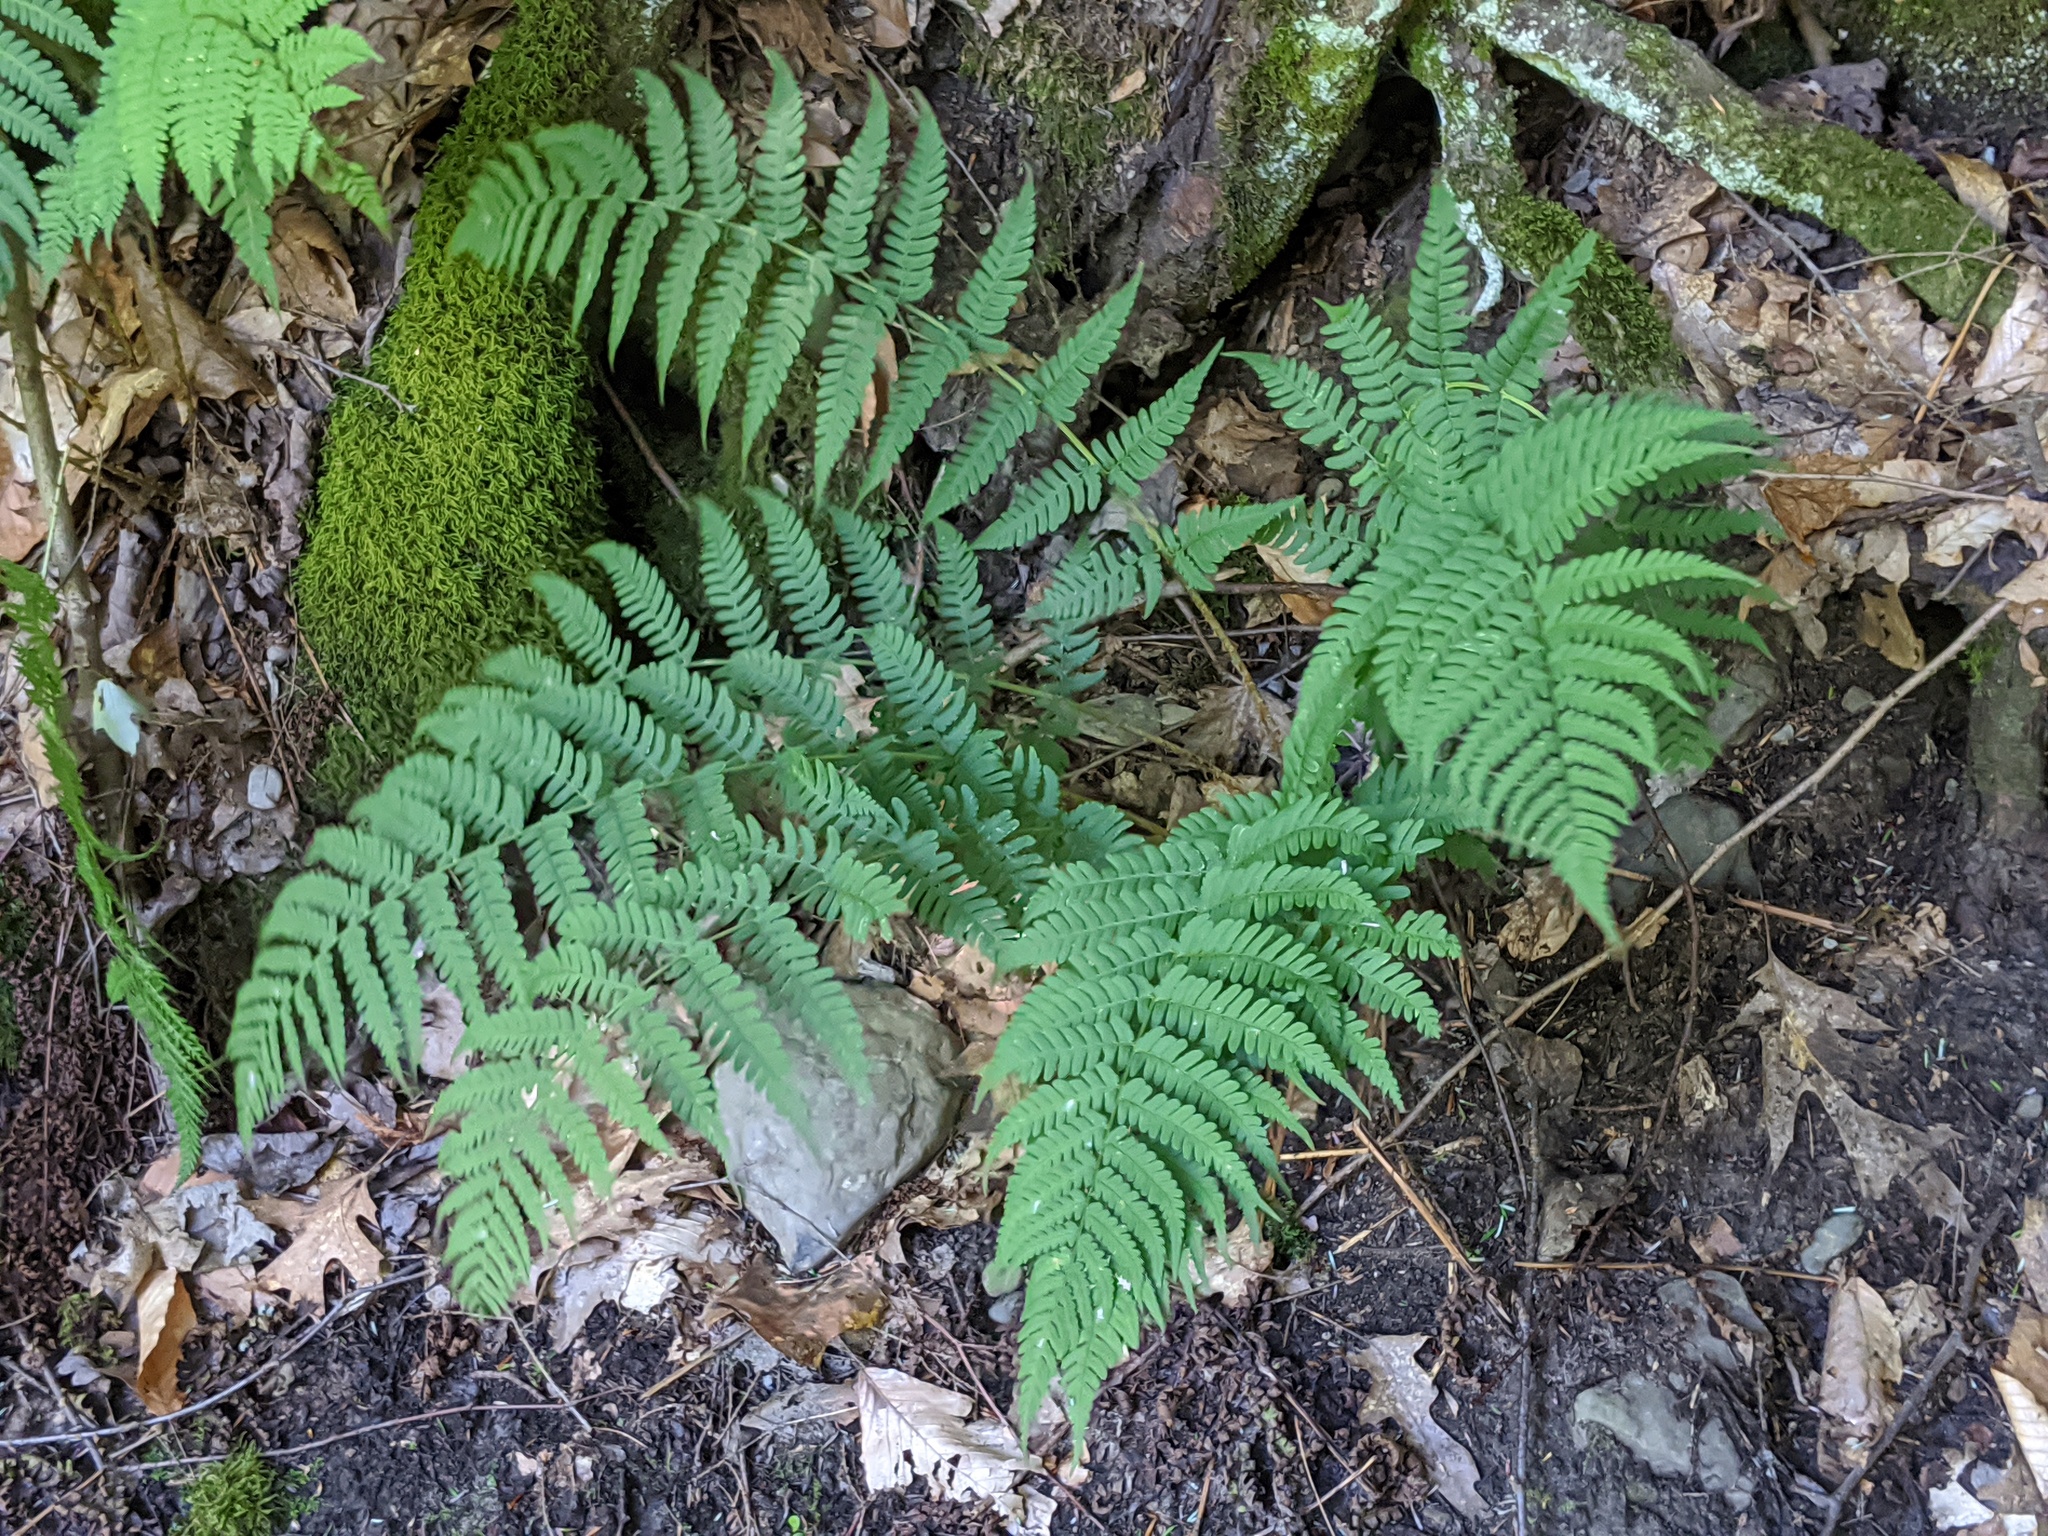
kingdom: Plantae
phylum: Tracheophyta
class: Polypodiopsida
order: Polypodiales
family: Dryopteridaceae
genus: Dryopteris
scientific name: Dryopteris marginalis
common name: Marginal wood fern
